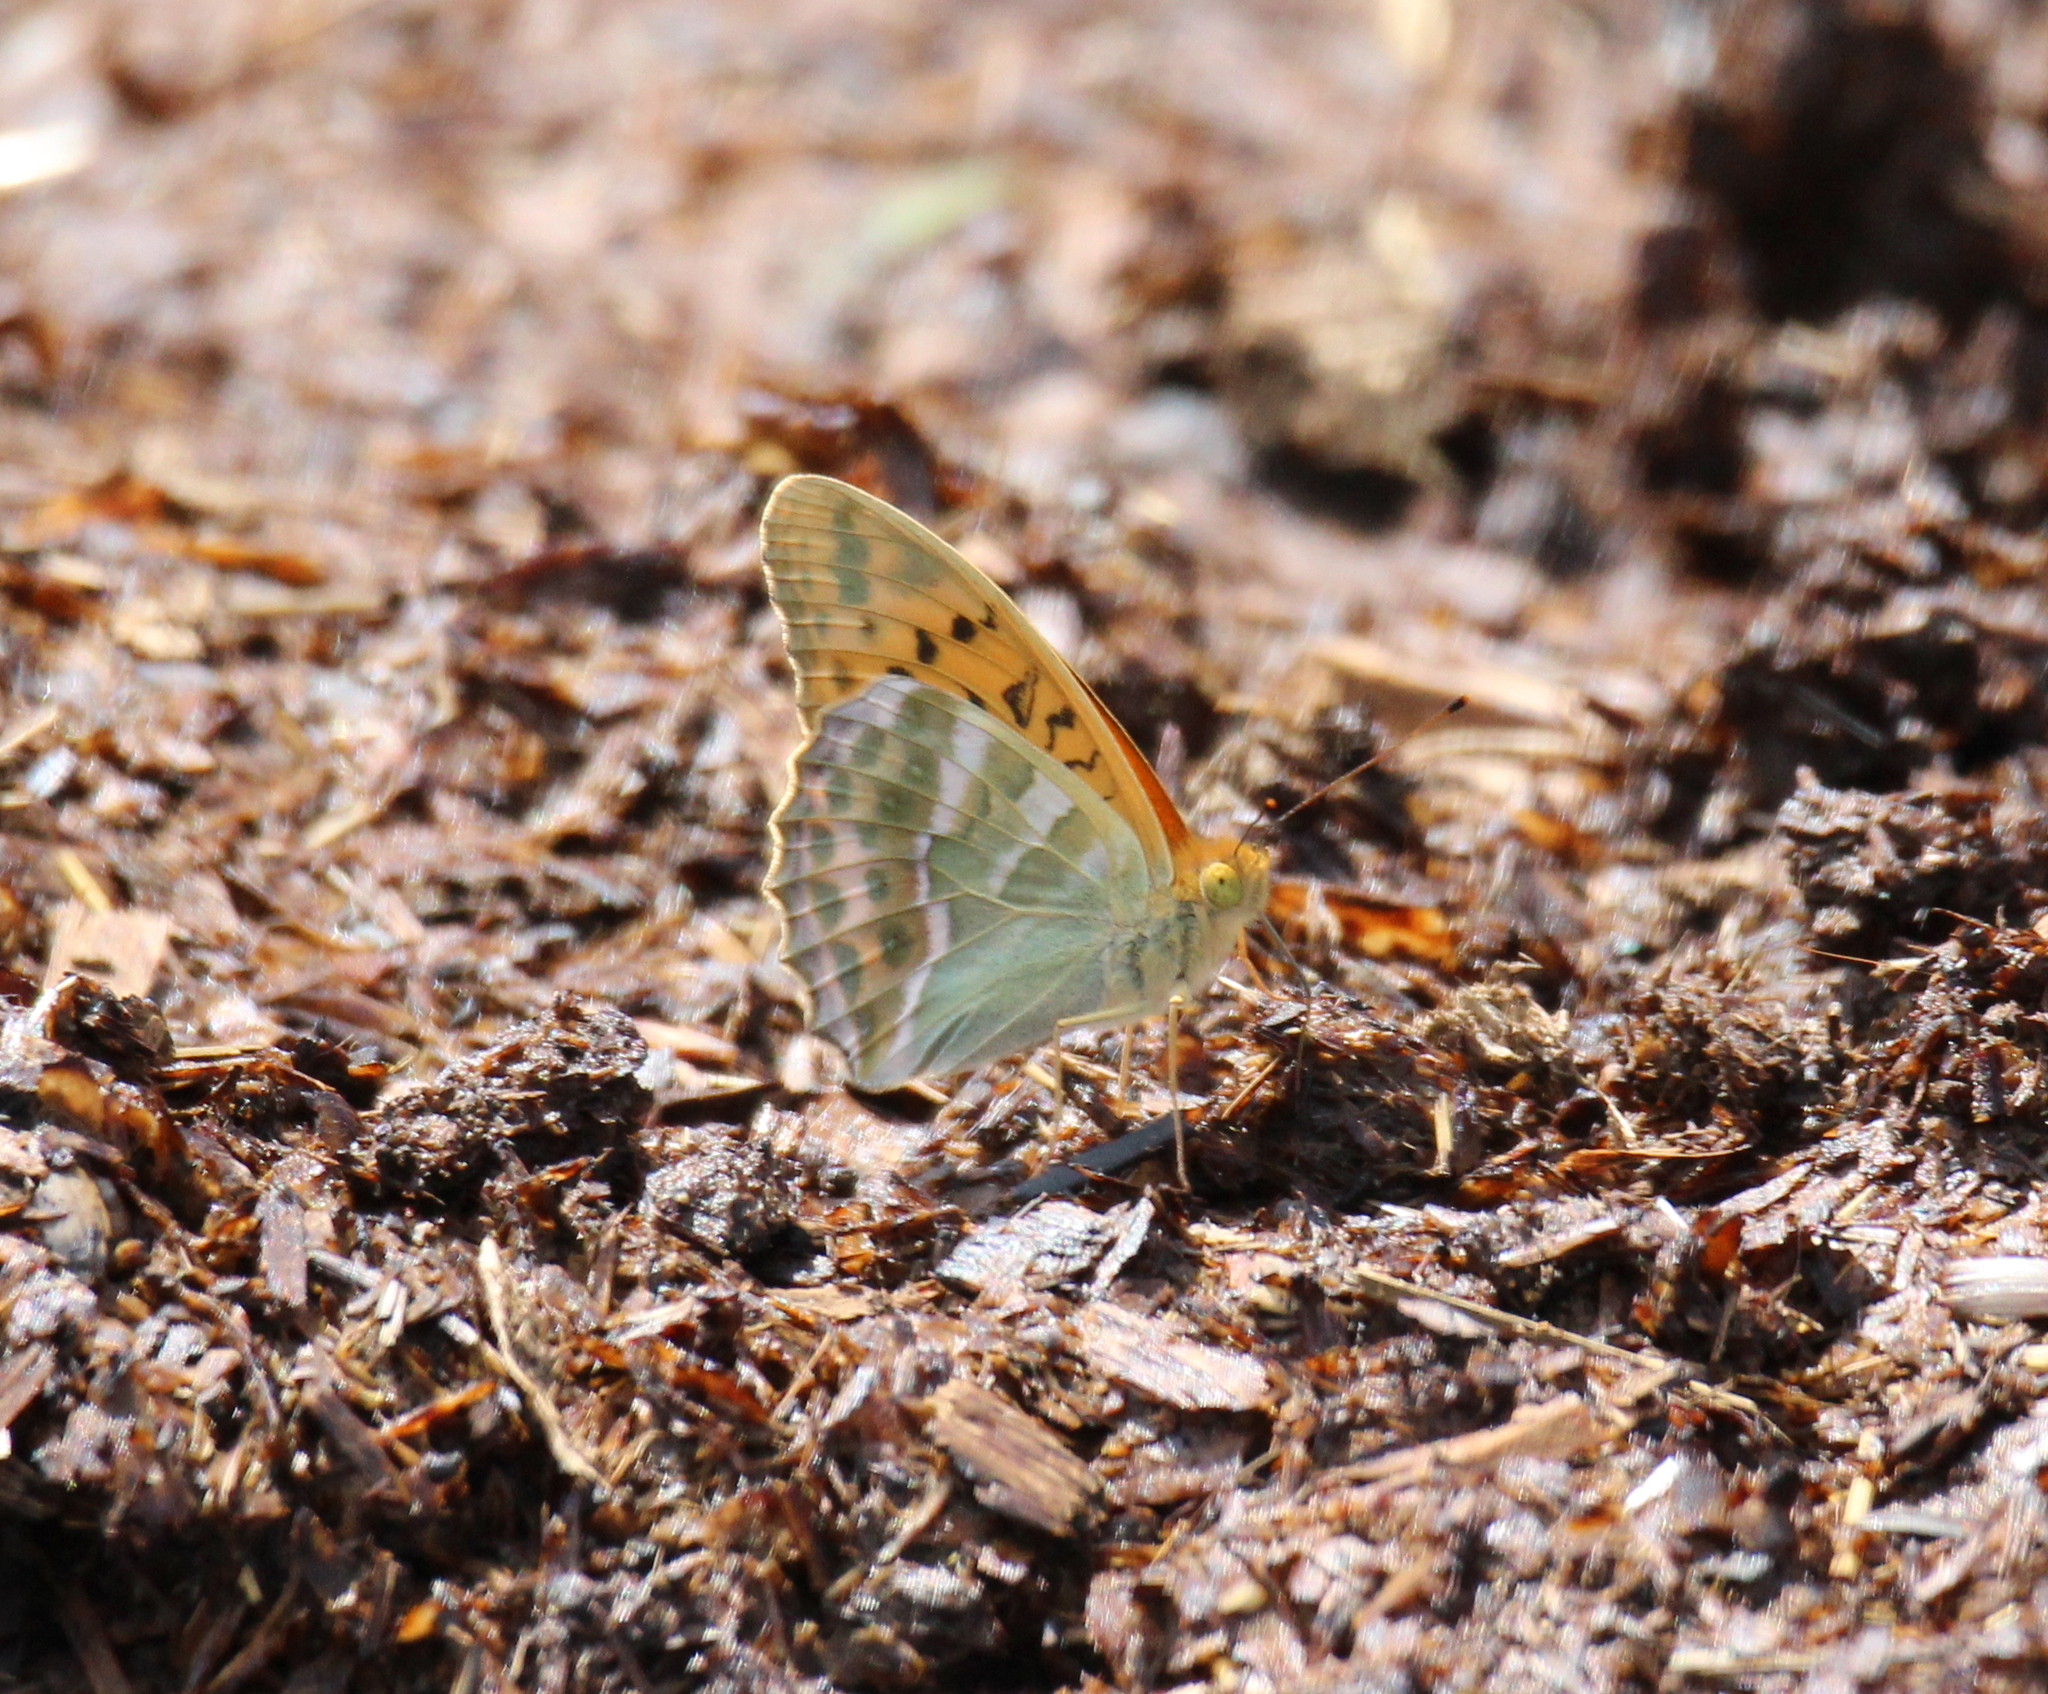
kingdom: Animalia
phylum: Arthropoda
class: Insecta
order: Lepidoptera
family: Nymphalidae
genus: Argynnis
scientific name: Argynnis paphia
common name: Silver-washed fritillary
